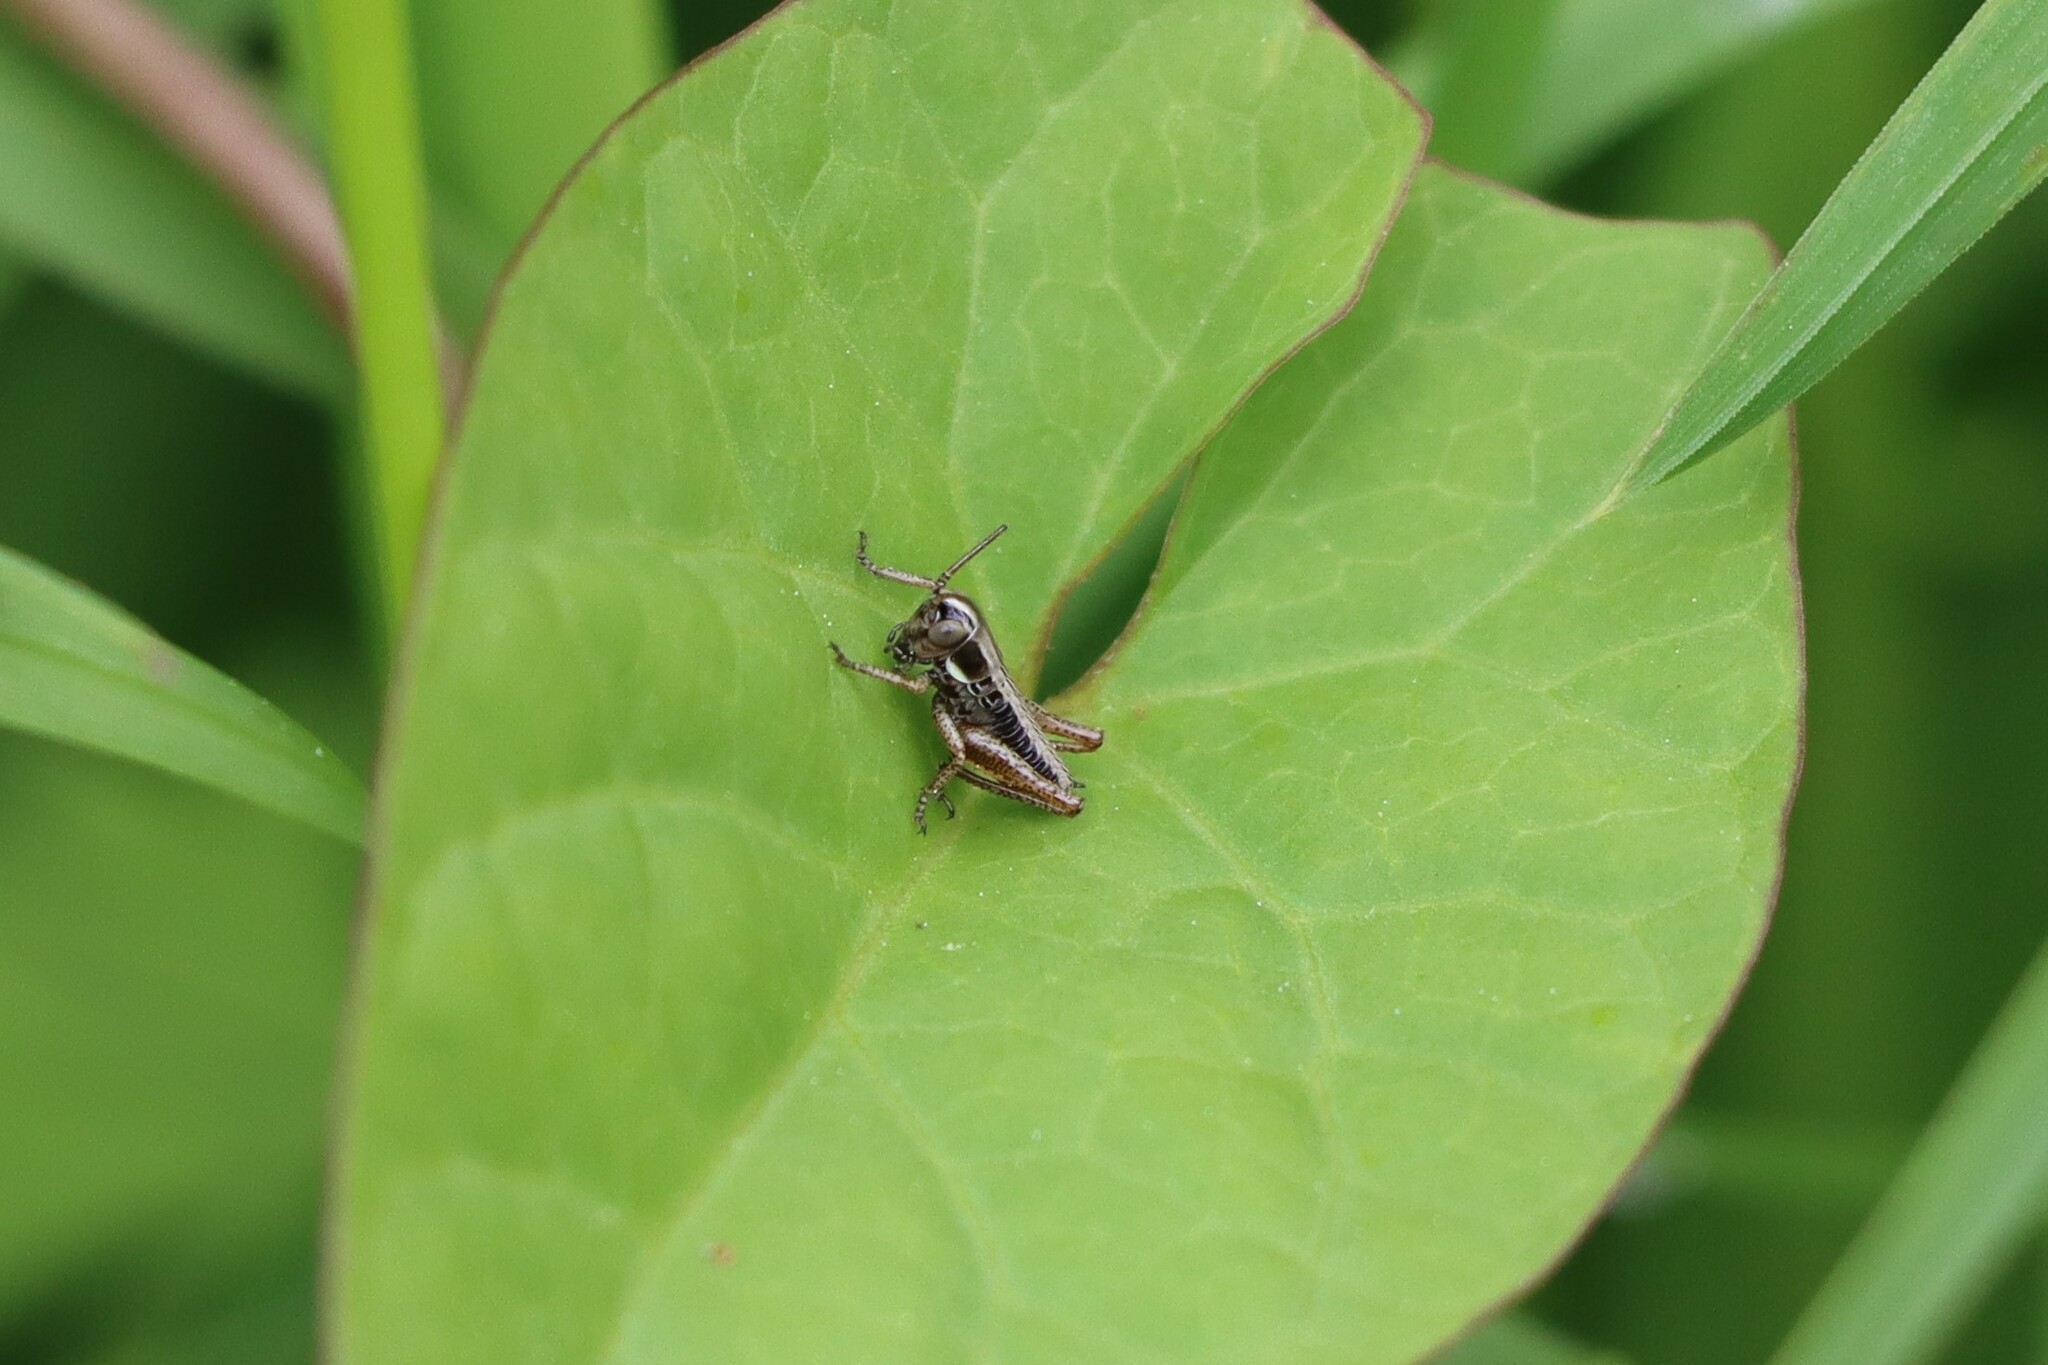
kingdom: Animalia
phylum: Arthropoda
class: Insecta
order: Orthoptera
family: Tettigoniidae
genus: Roeseliana
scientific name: Roeseliana roeselii
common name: Roesel's bush cricket
